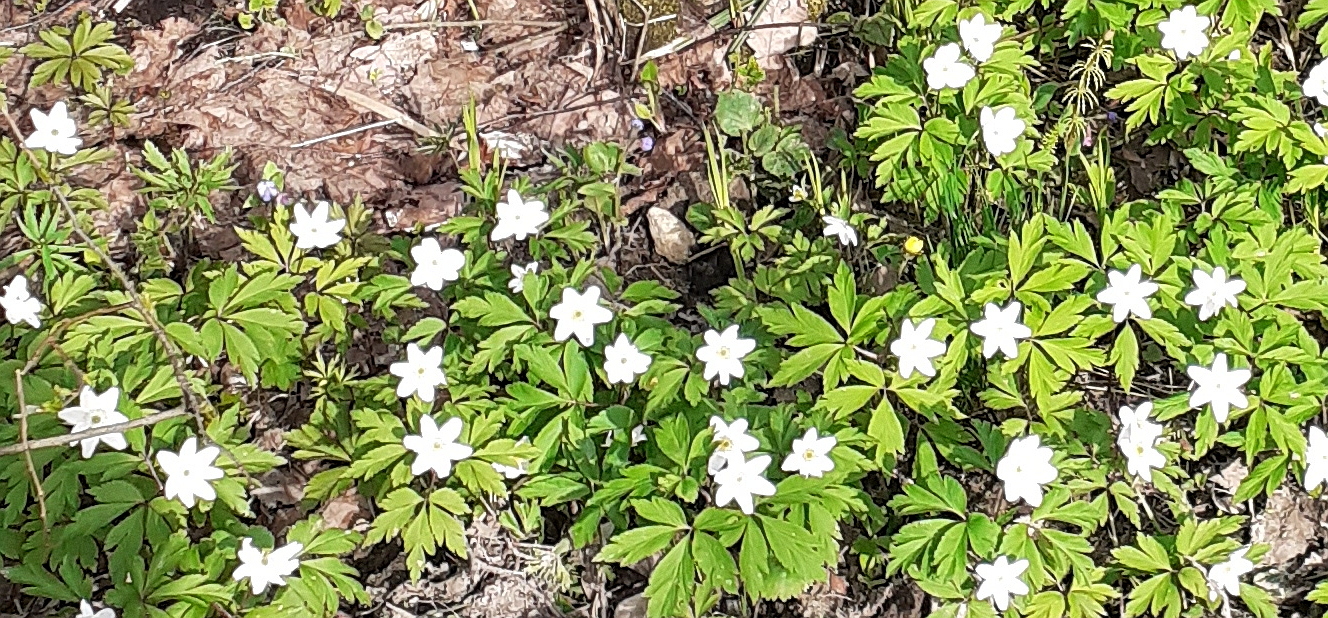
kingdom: Plantae
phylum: Tracheophyta
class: Magnoliopsida
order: Ranunculales
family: Ranunculaceae
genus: Anemone
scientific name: Anemone nemorosa
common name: Wood anemone
